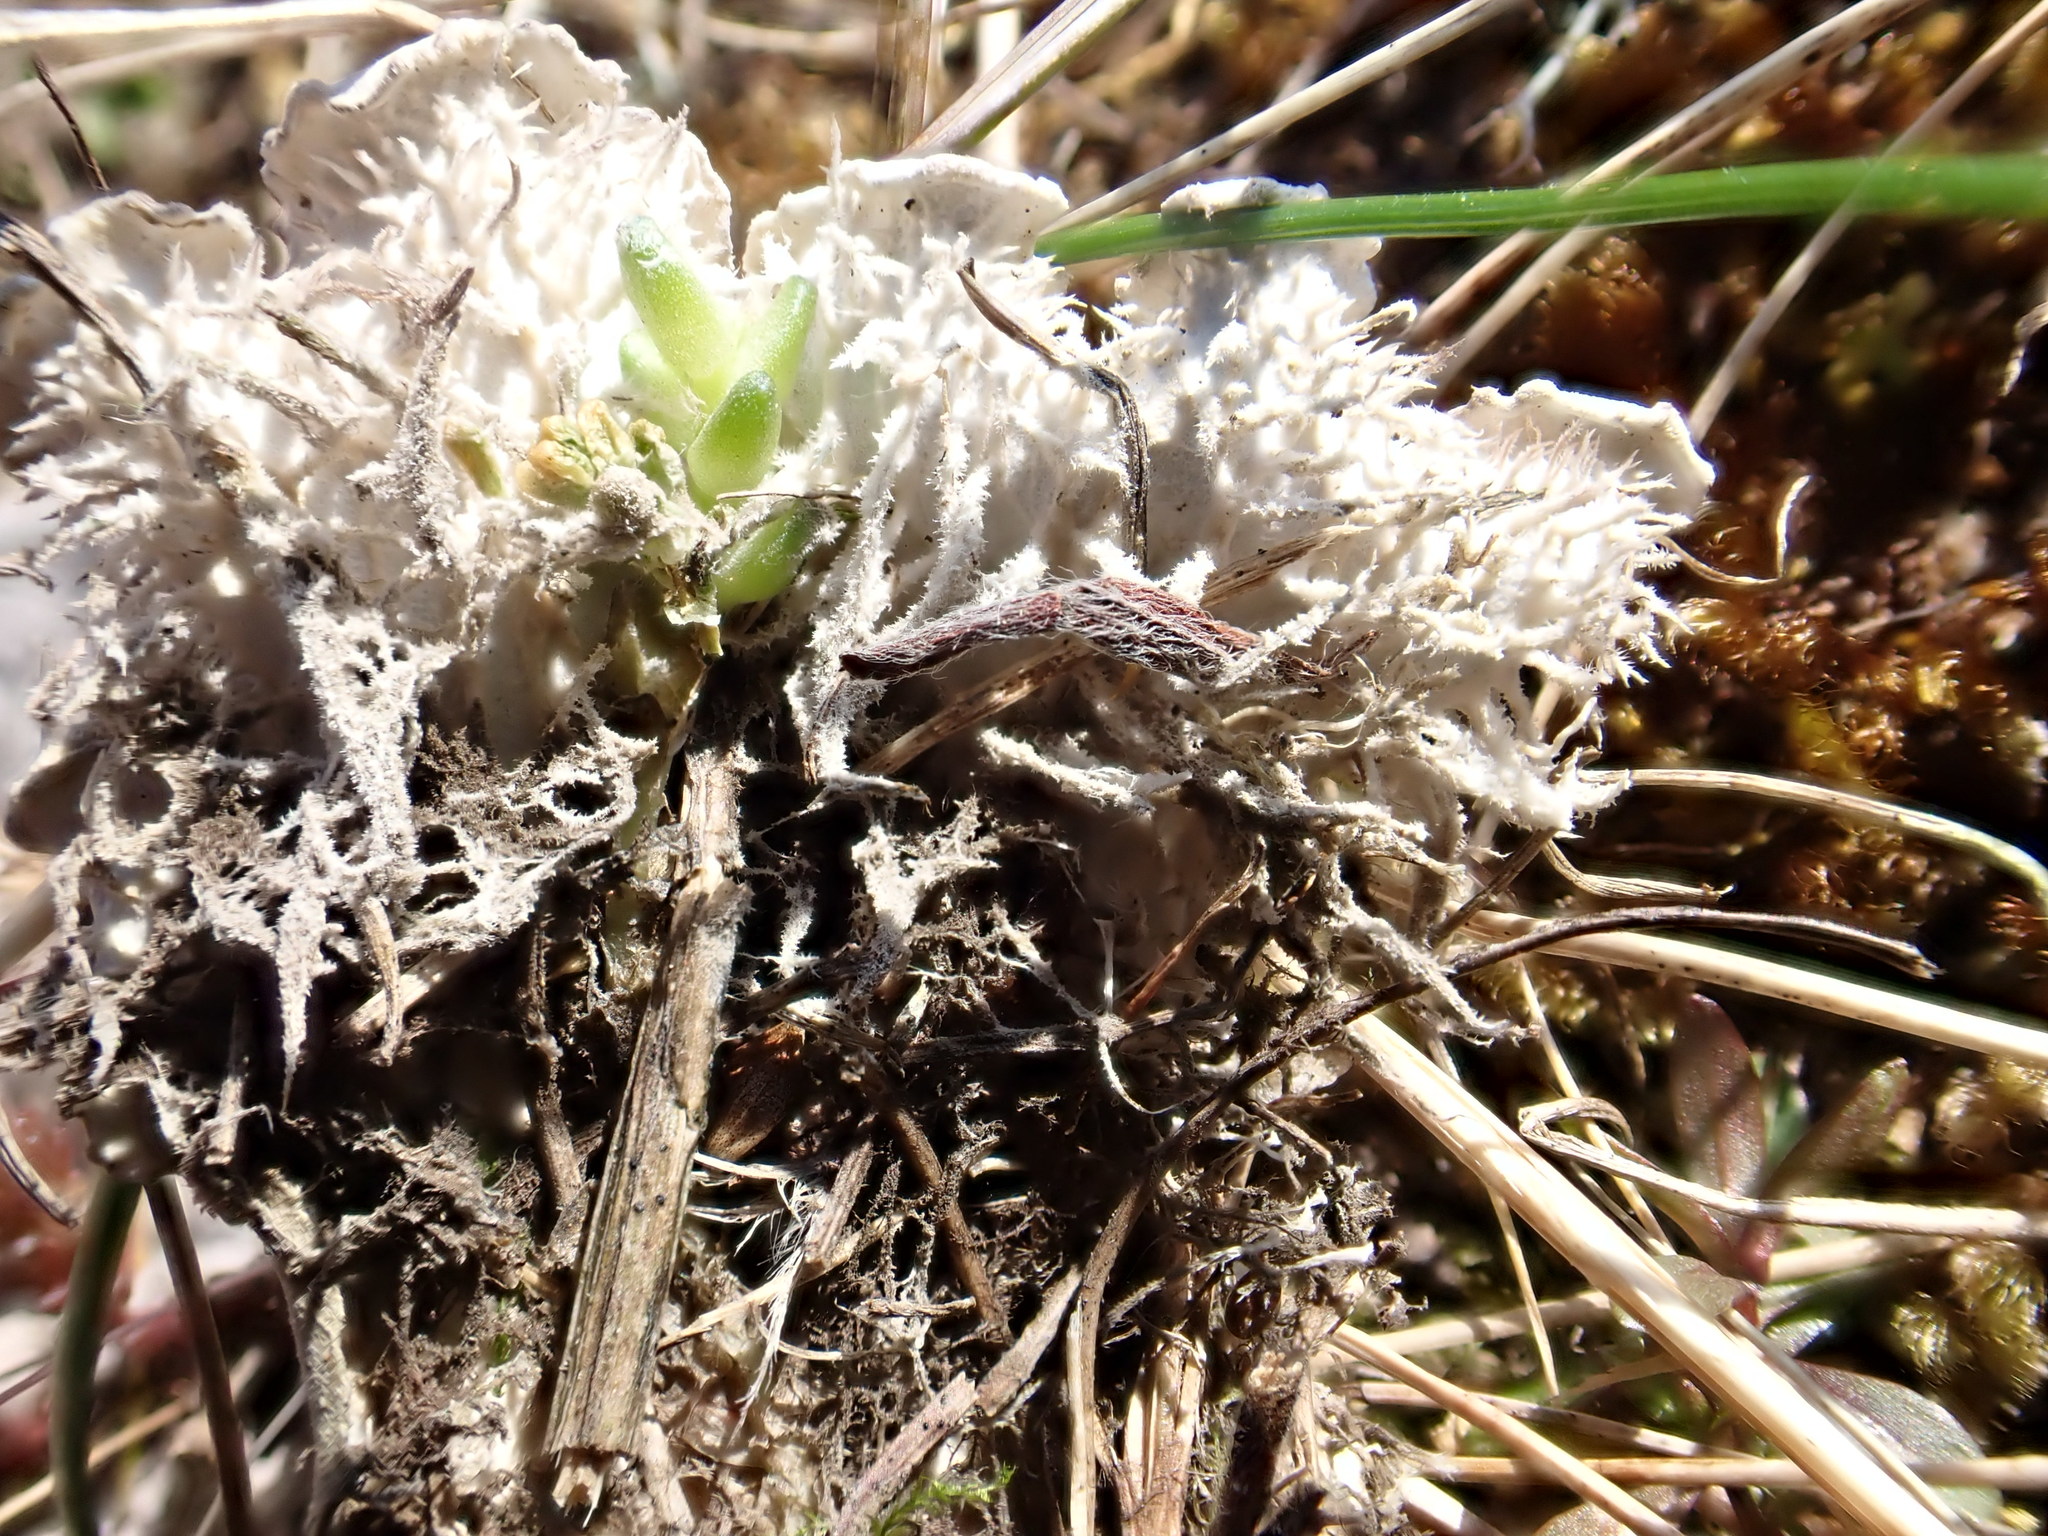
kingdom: Fungi
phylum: Ascomycota
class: Lecanoromycetes
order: Peltigerales
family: Peltigeraceae
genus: Peltigera
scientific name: Peltigera canina
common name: Dog pelt lichen
